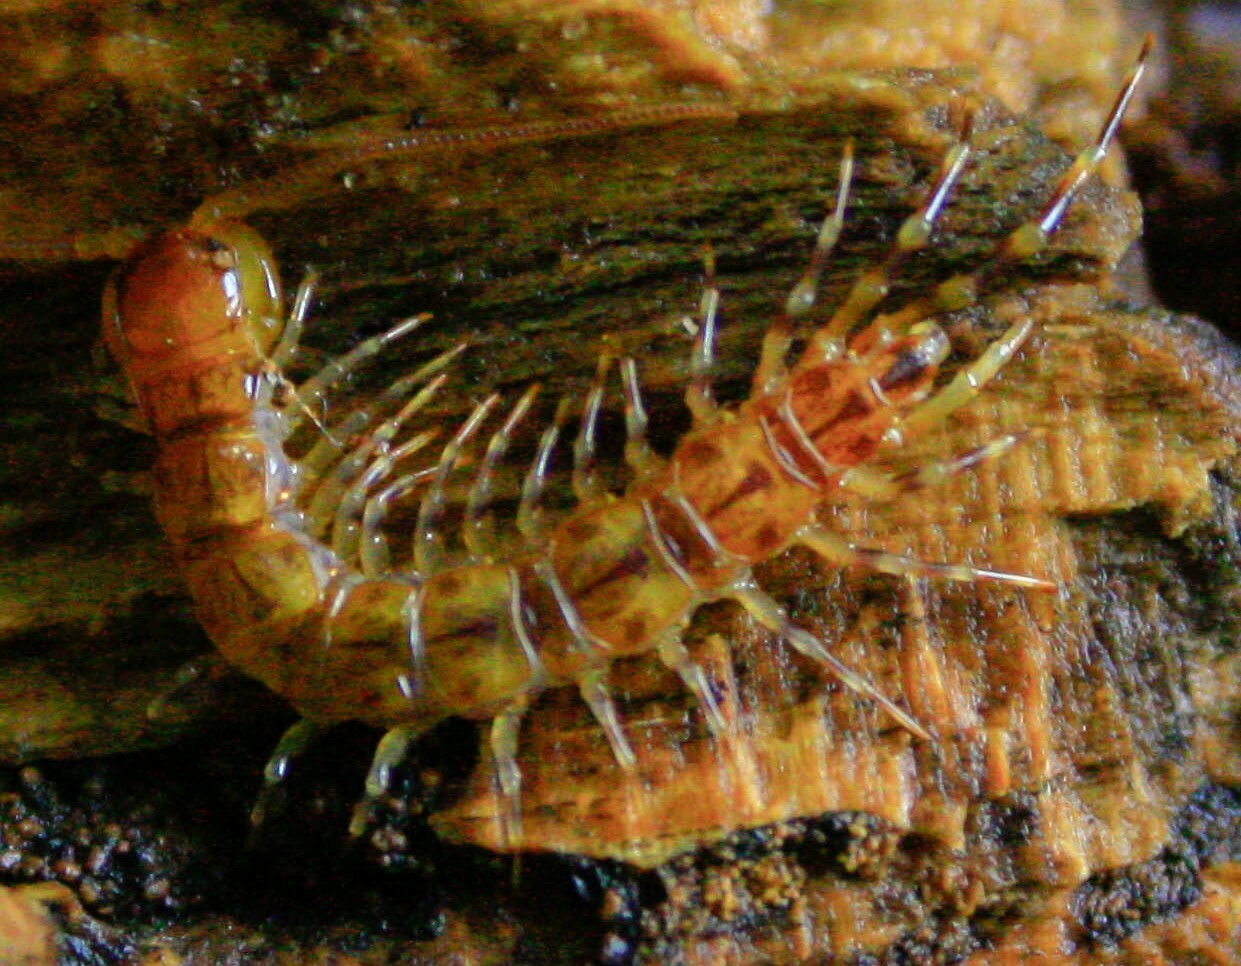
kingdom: Animalia
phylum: Arthropoda
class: Chilopoda
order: Lithobiomorpha
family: Lithobiidae
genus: Lithobius
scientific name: Lithobius variegatus
